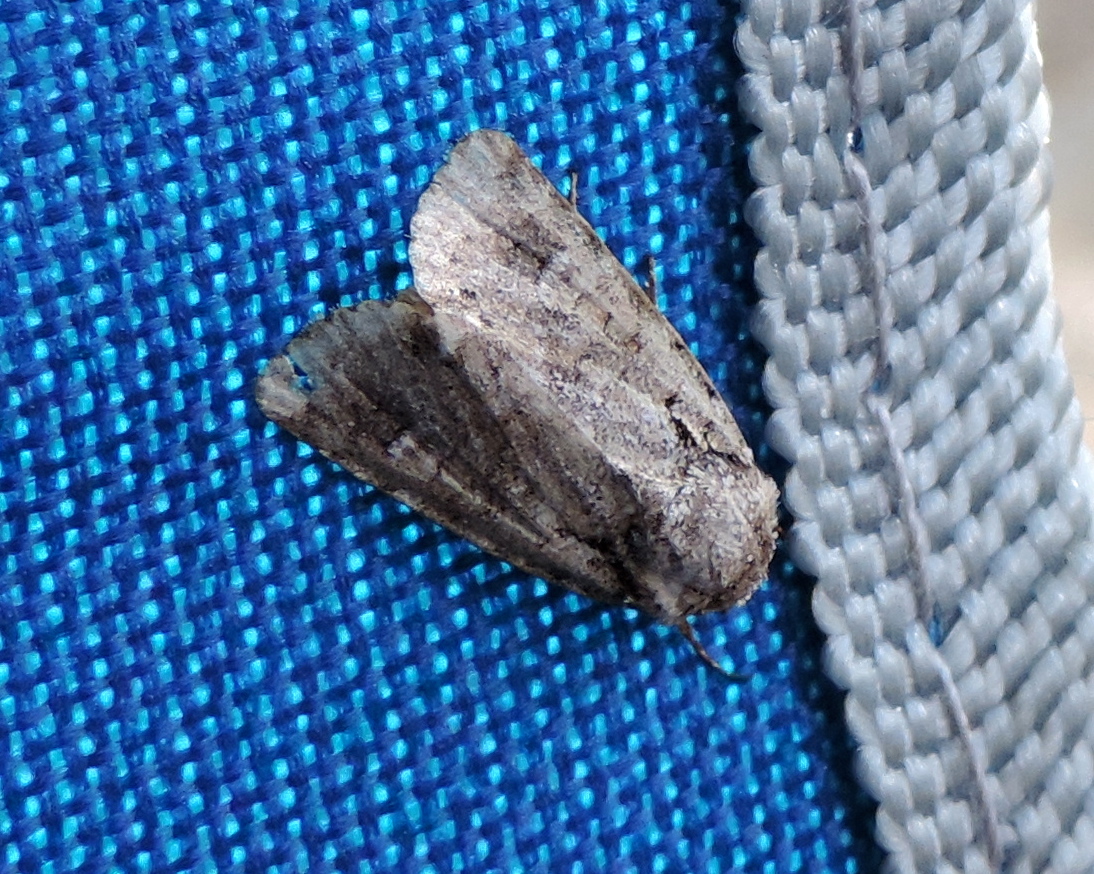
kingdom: Animalia
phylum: Arthropoda
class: Insecta
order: Lepidoptera
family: Noctuidae
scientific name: Noctuidae
